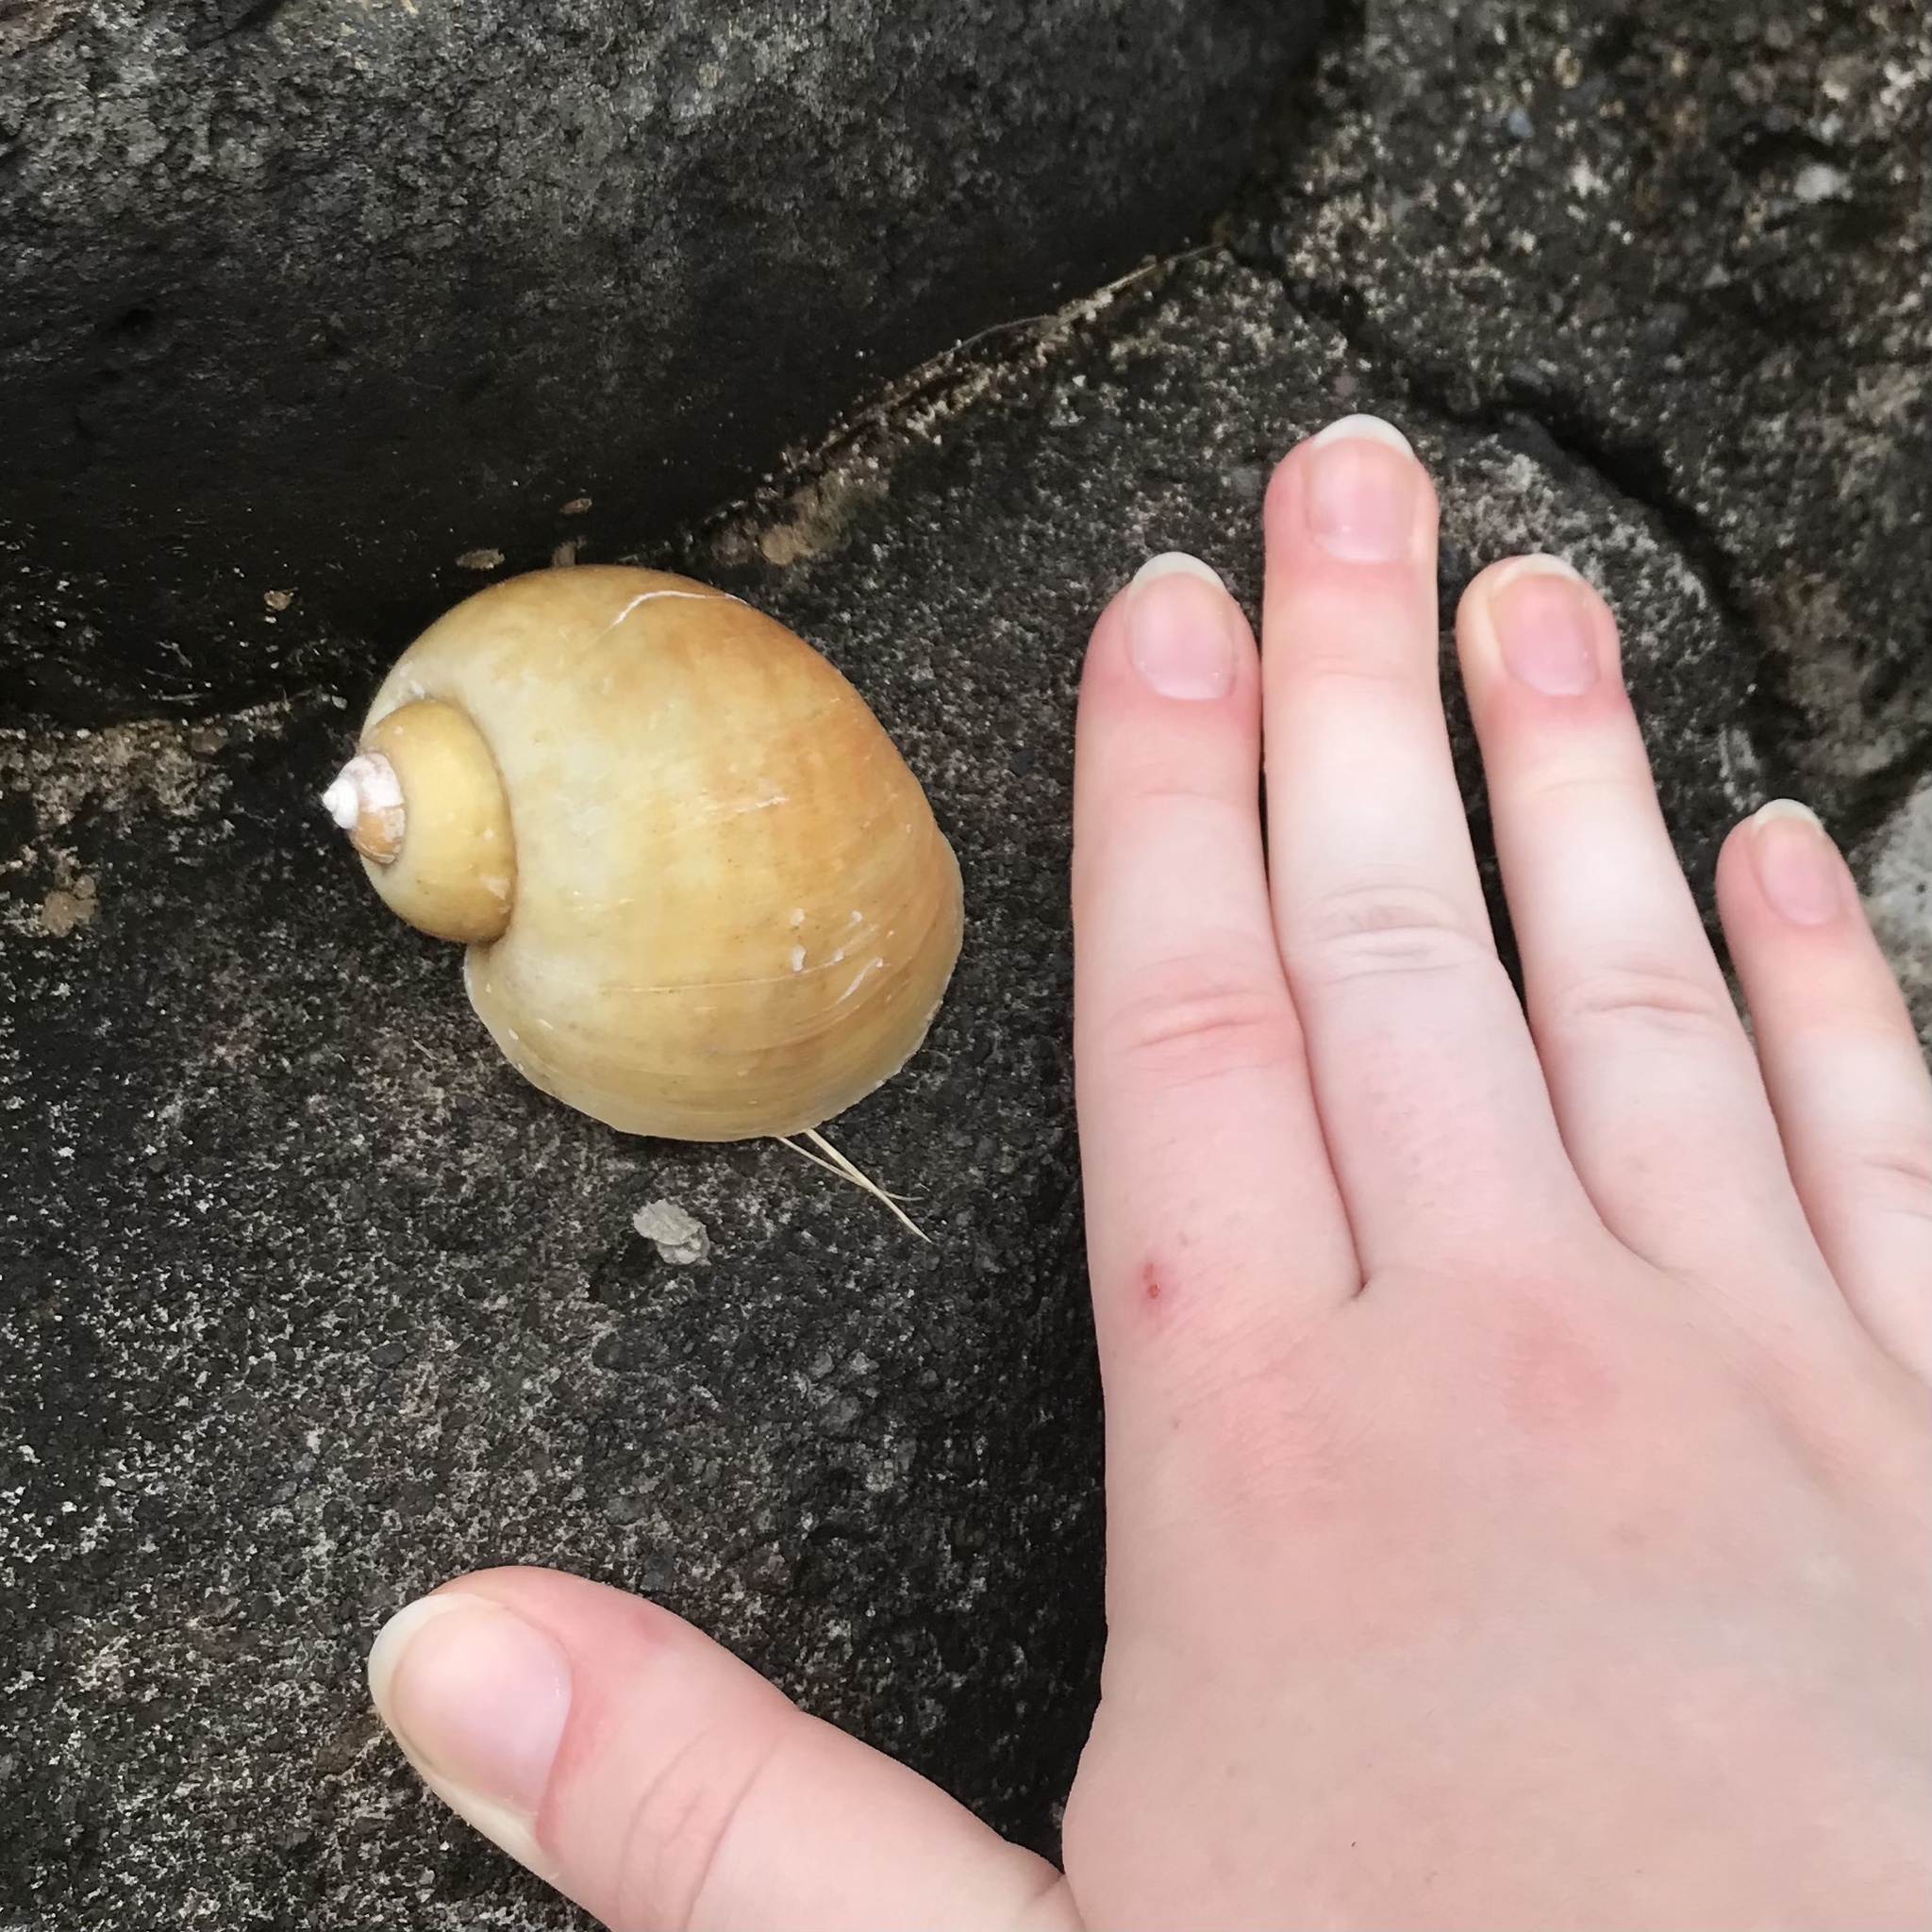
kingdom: Animalia
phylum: Mollusca
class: Gastropoda
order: Architaenioglossa
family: Ampullariidae
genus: Pomacea
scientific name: Pomacea canaliculata
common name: Channeled applesnail
